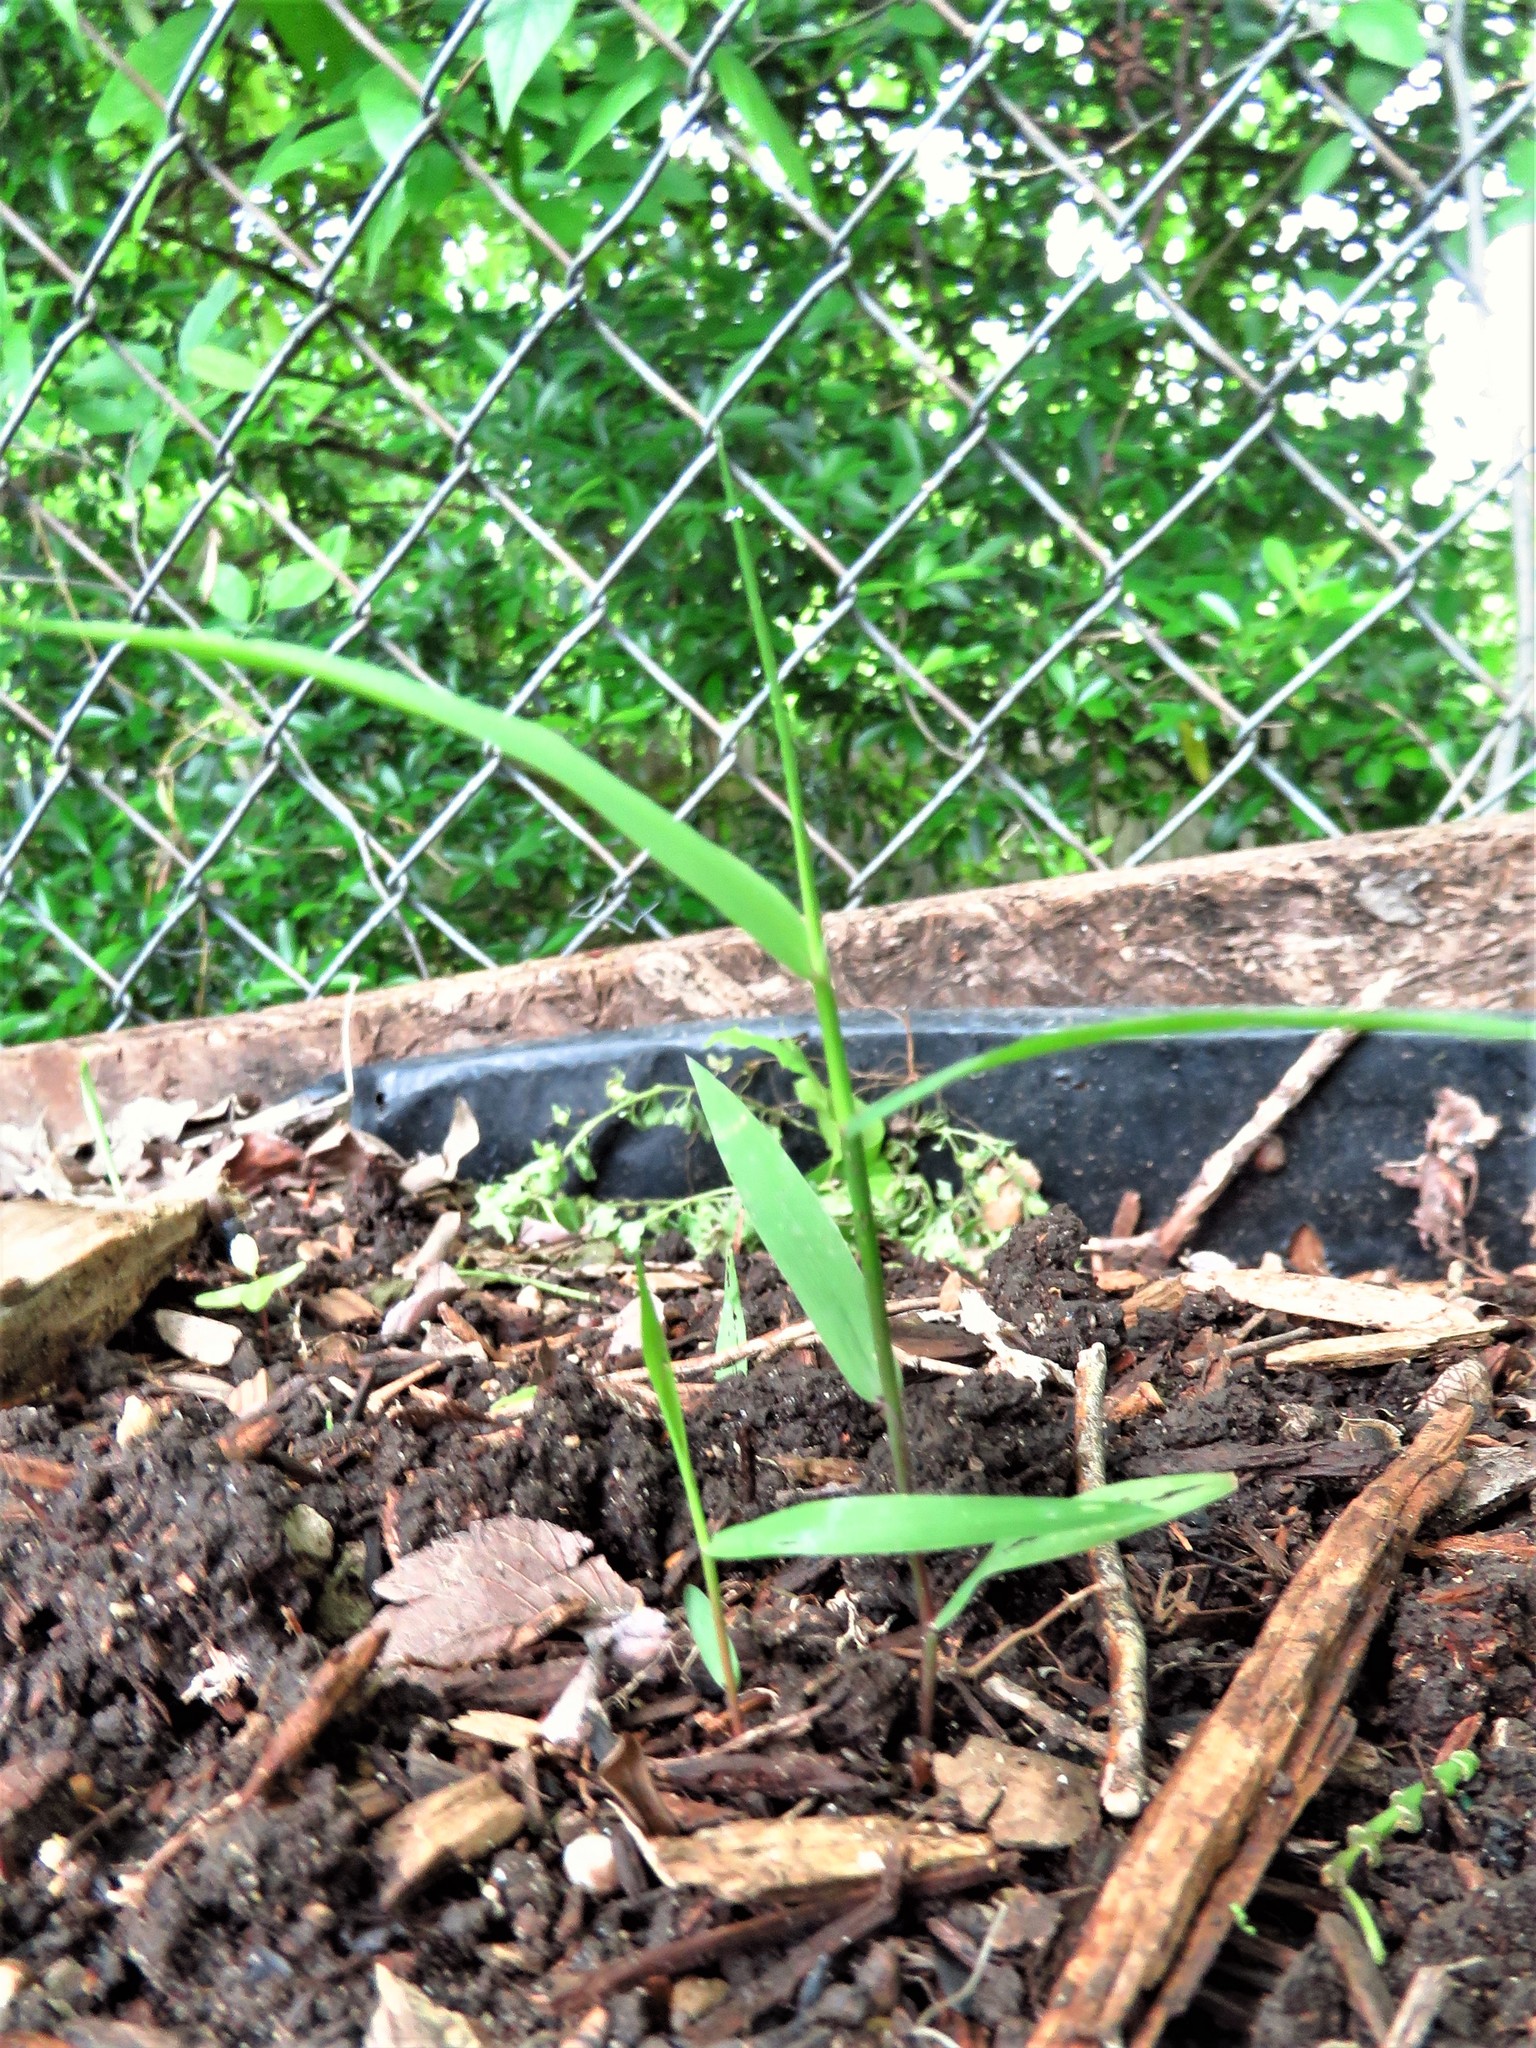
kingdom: Plantae
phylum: Tracheophyta
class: Liliopsida
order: Poales
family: Poaceae
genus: Chasmanthium
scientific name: Chasmanthium latifolium
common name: Broad-leaved chasmanthium
